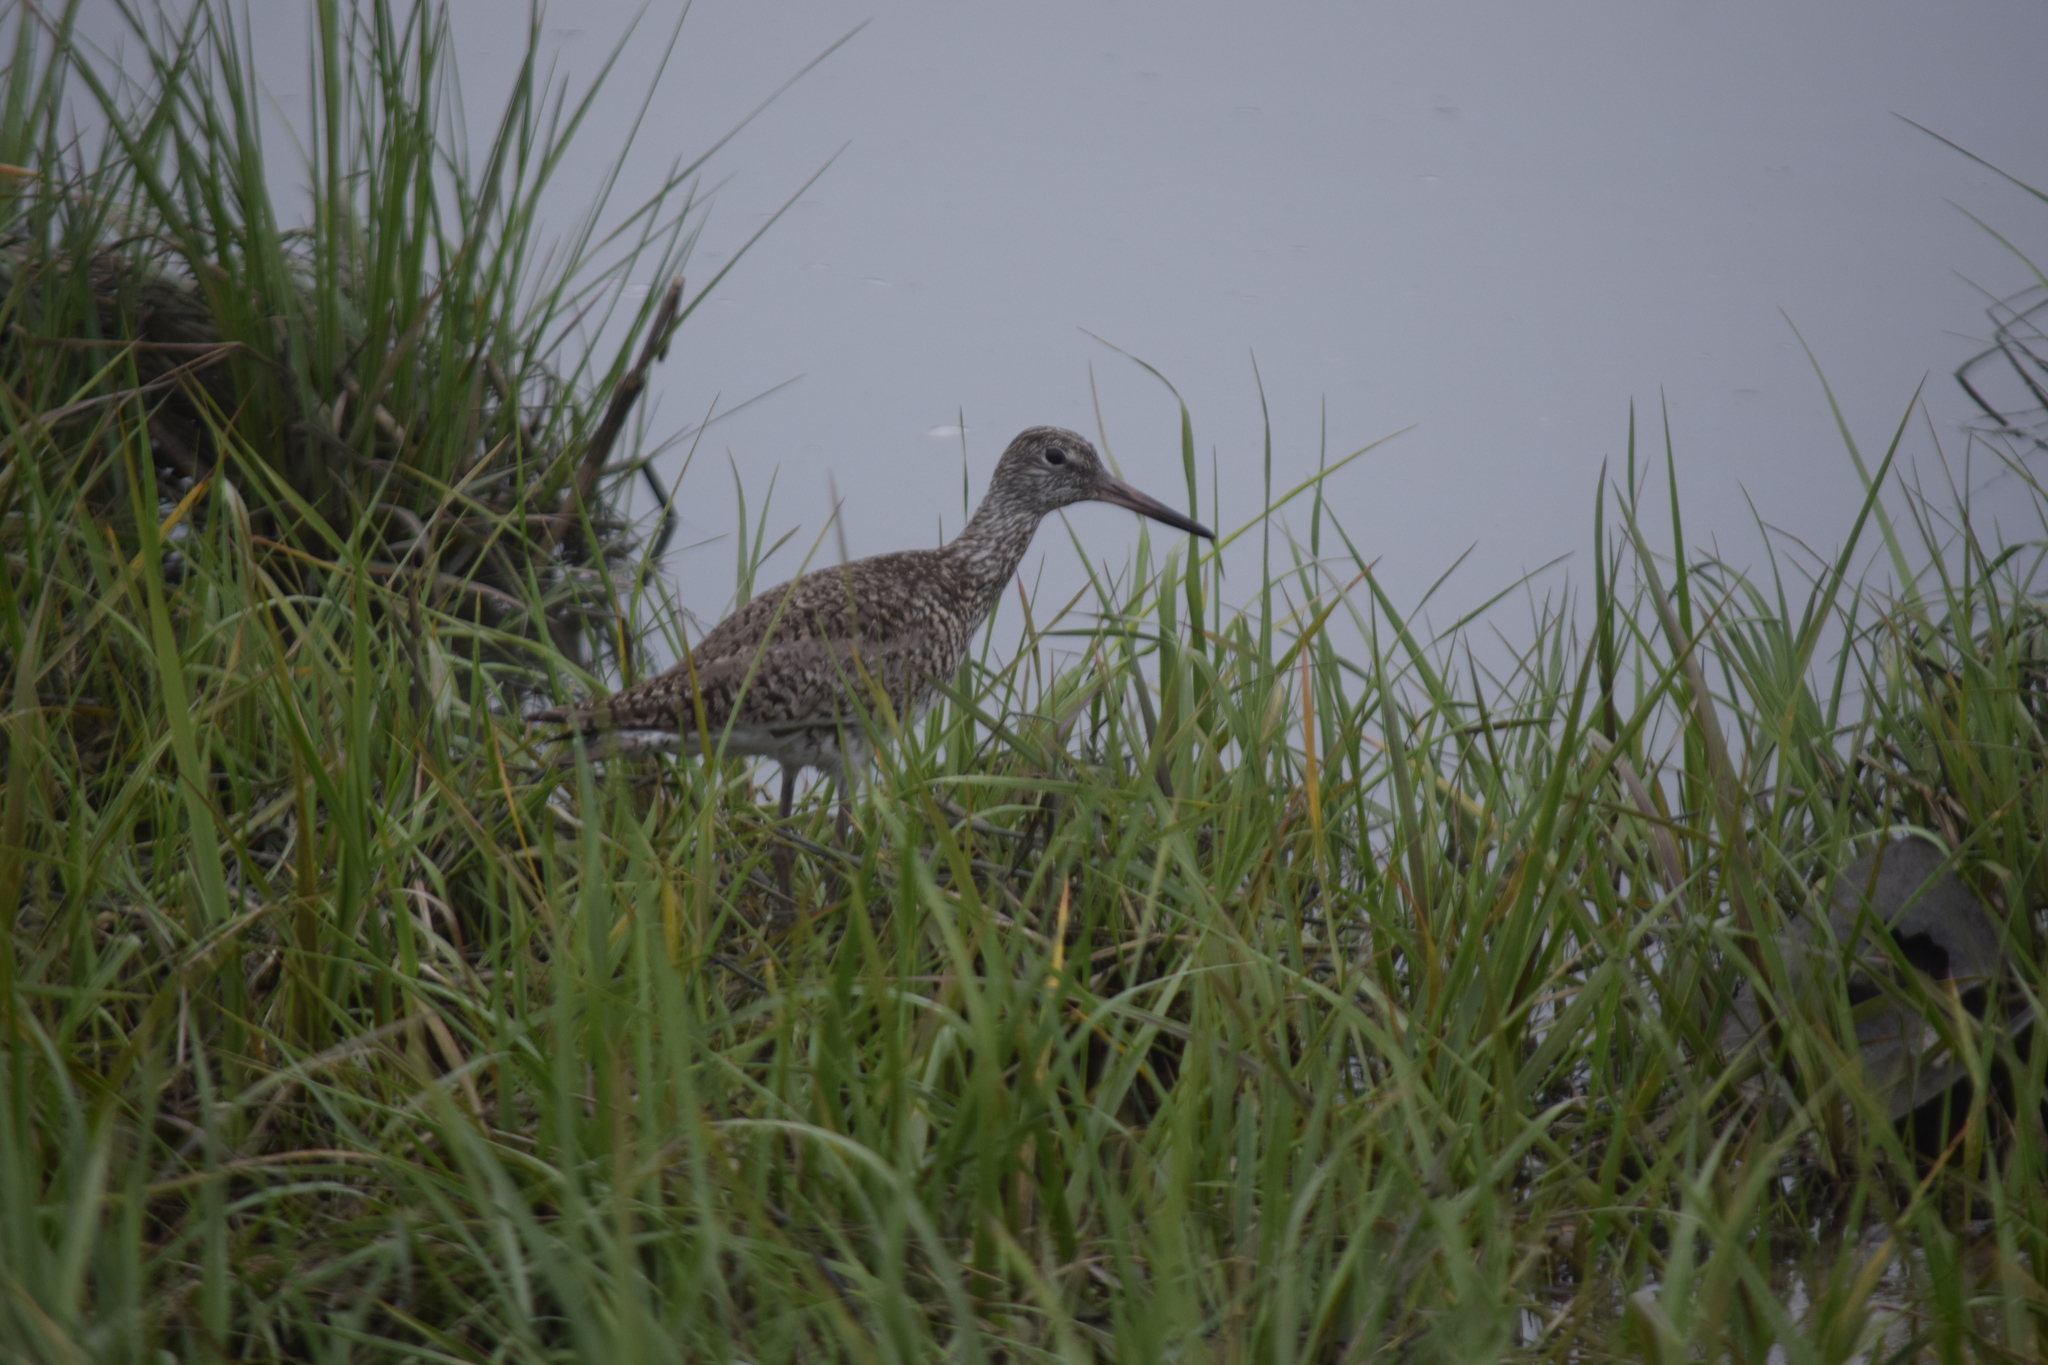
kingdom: Animalia
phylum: Chordata
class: Aves
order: Charadriiformes
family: Scolopacidae
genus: Tringa
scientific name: Tringa semipalmata
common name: Willet
